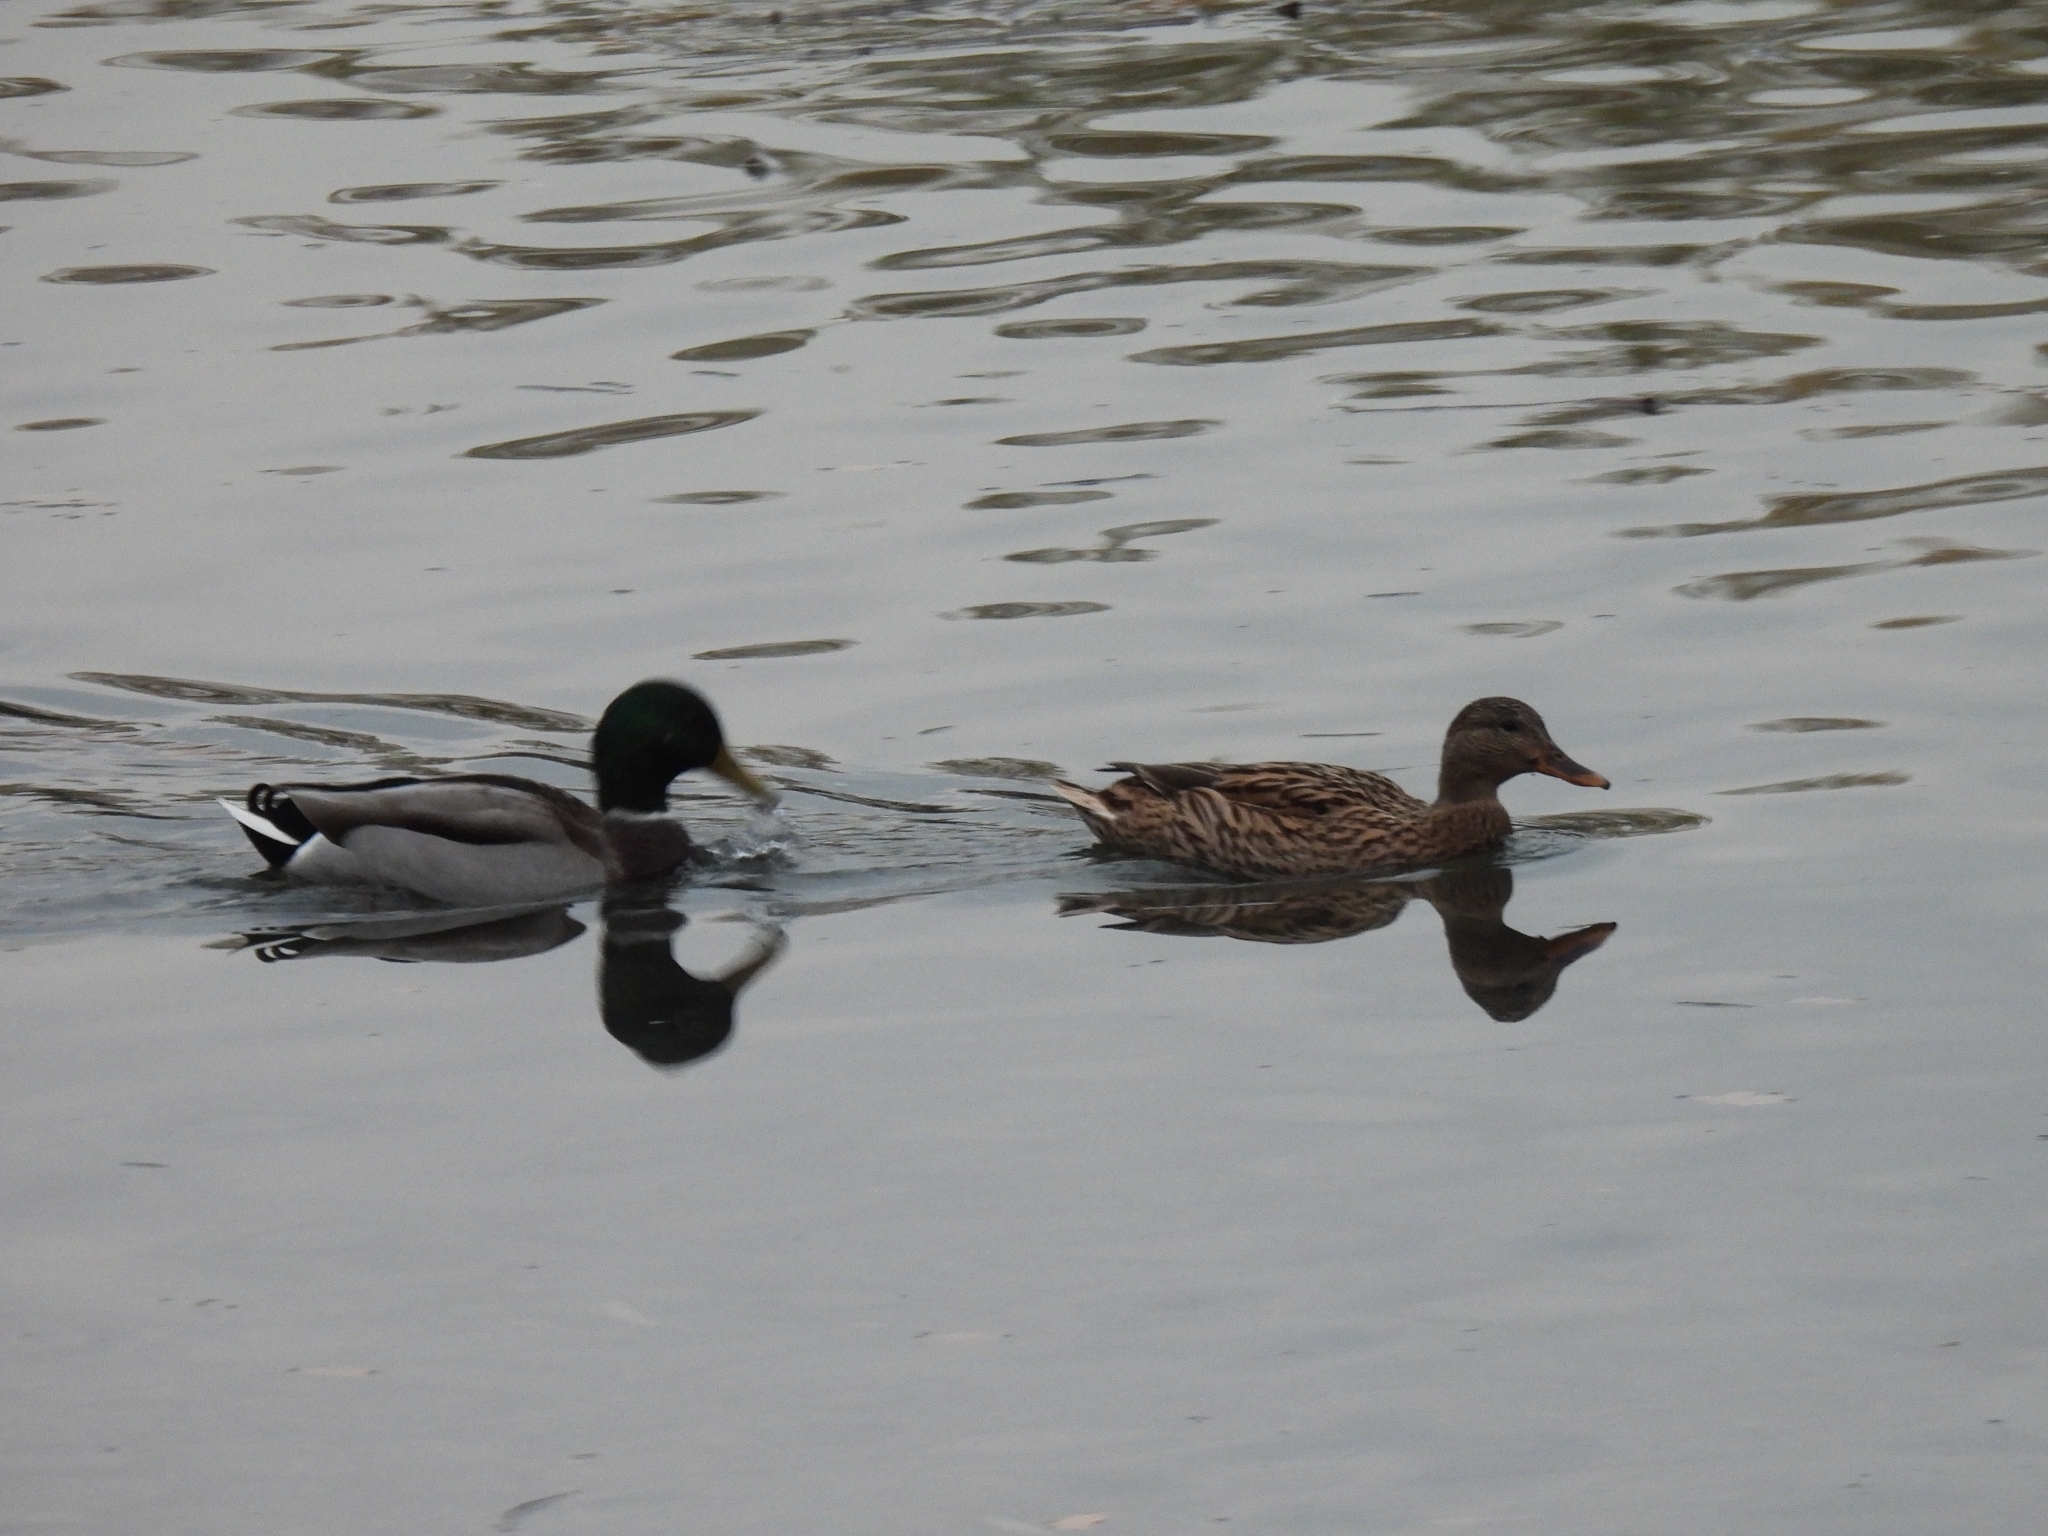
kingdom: Animalia
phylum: Chordata
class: Aves
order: Anseriformes
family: Anatidae
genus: Anas
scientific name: Anas platyrhynchos
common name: Mallard
